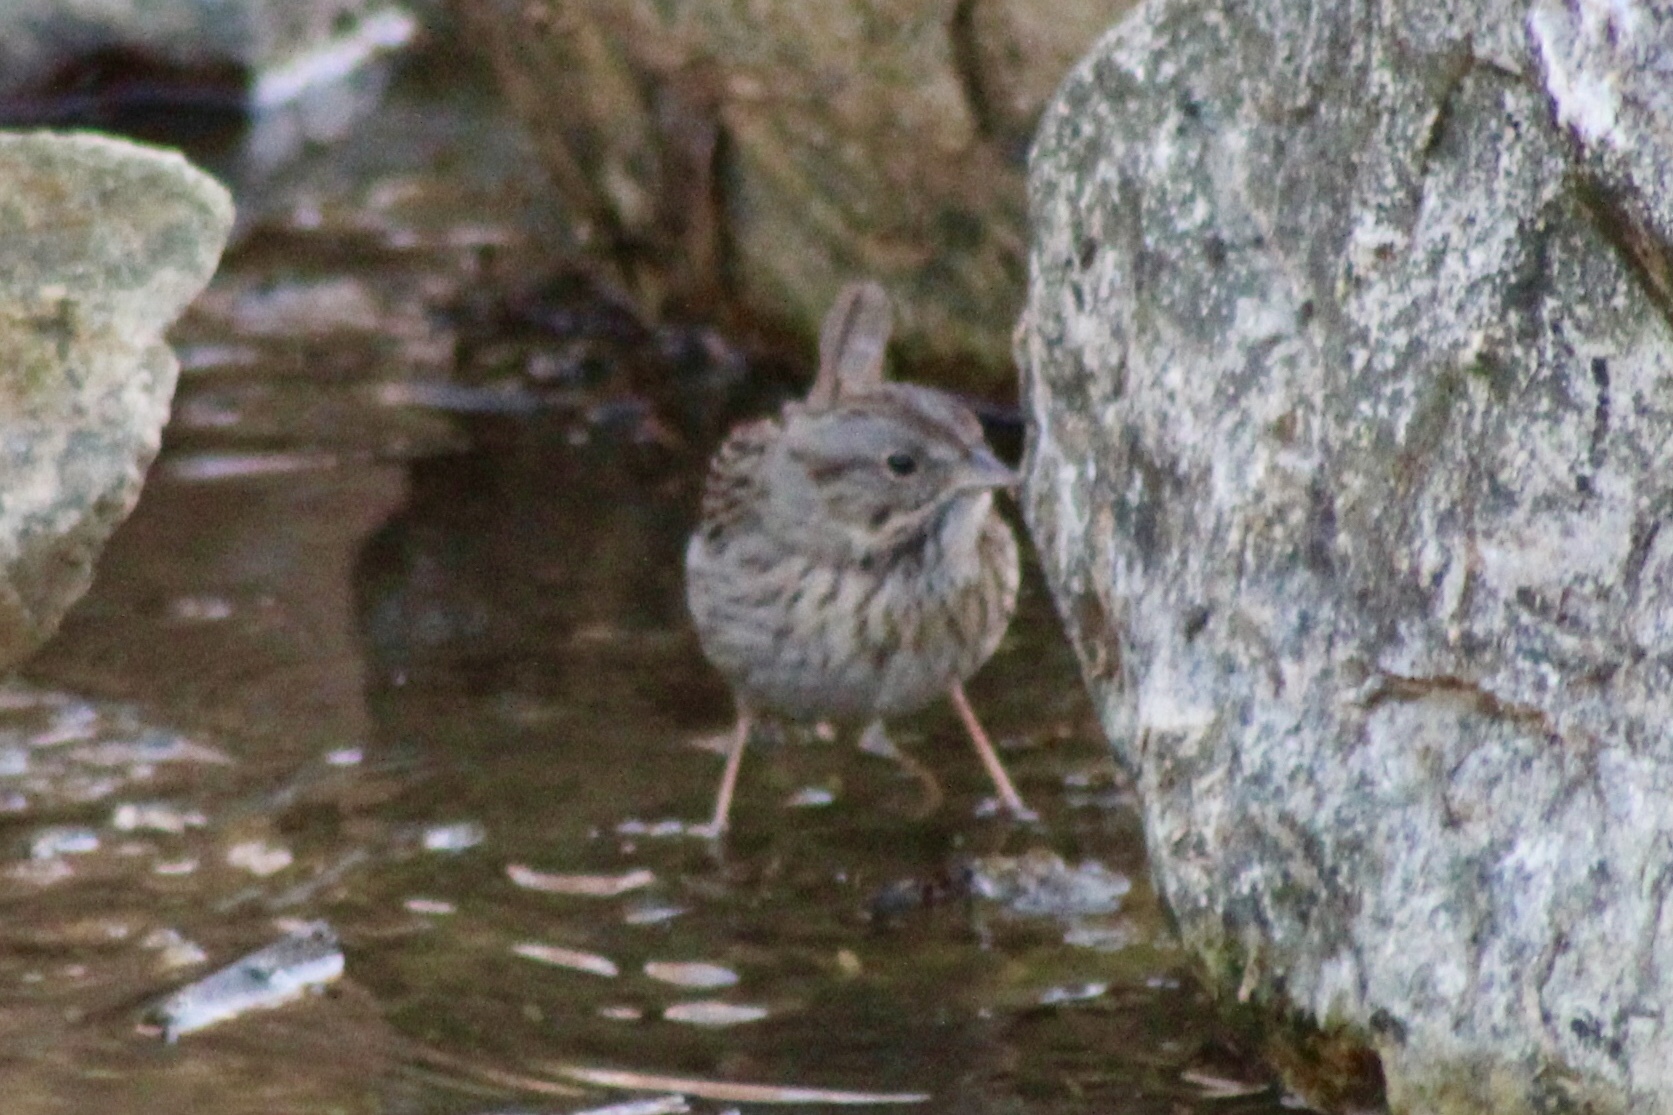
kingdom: Animalia
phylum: Chordata
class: Aves
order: Passeriformes
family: Passerellidae
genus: Melospiza
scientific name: Melospiza lincolnii
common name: Lincoln's sparrow
